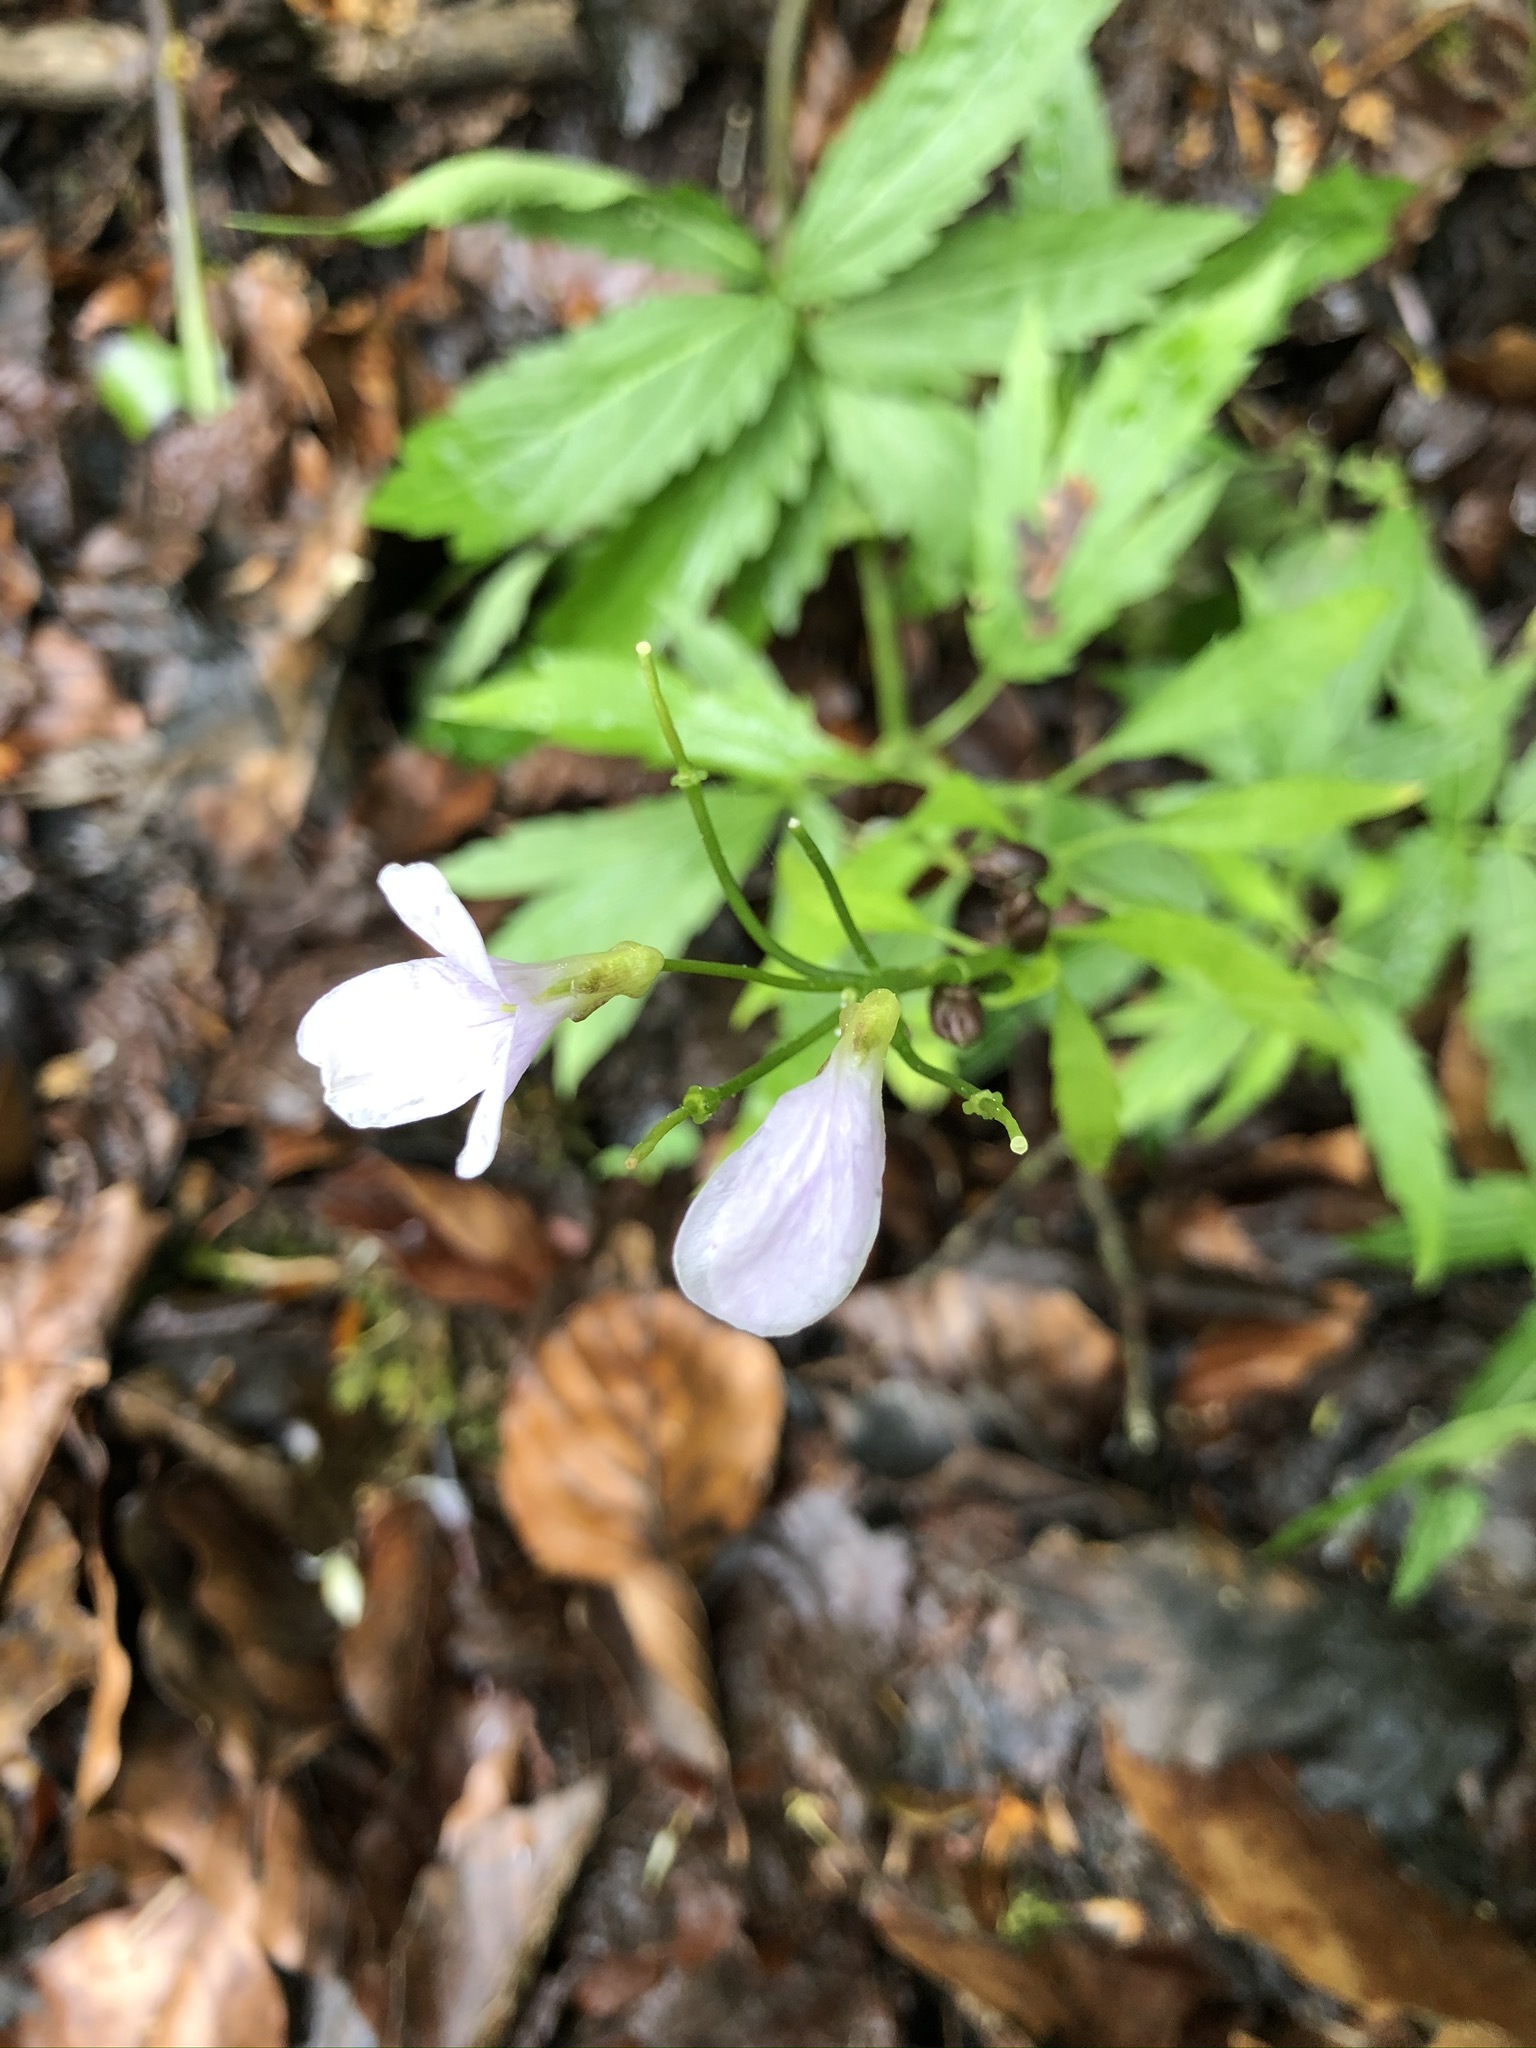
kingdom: Plantae
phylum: Tracheophyta
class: Magnoliopsida
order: Brassicales
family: Brassicaceae
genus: Cardamine
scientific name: Cardamine bulbifera
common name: Coralroot bittercress
